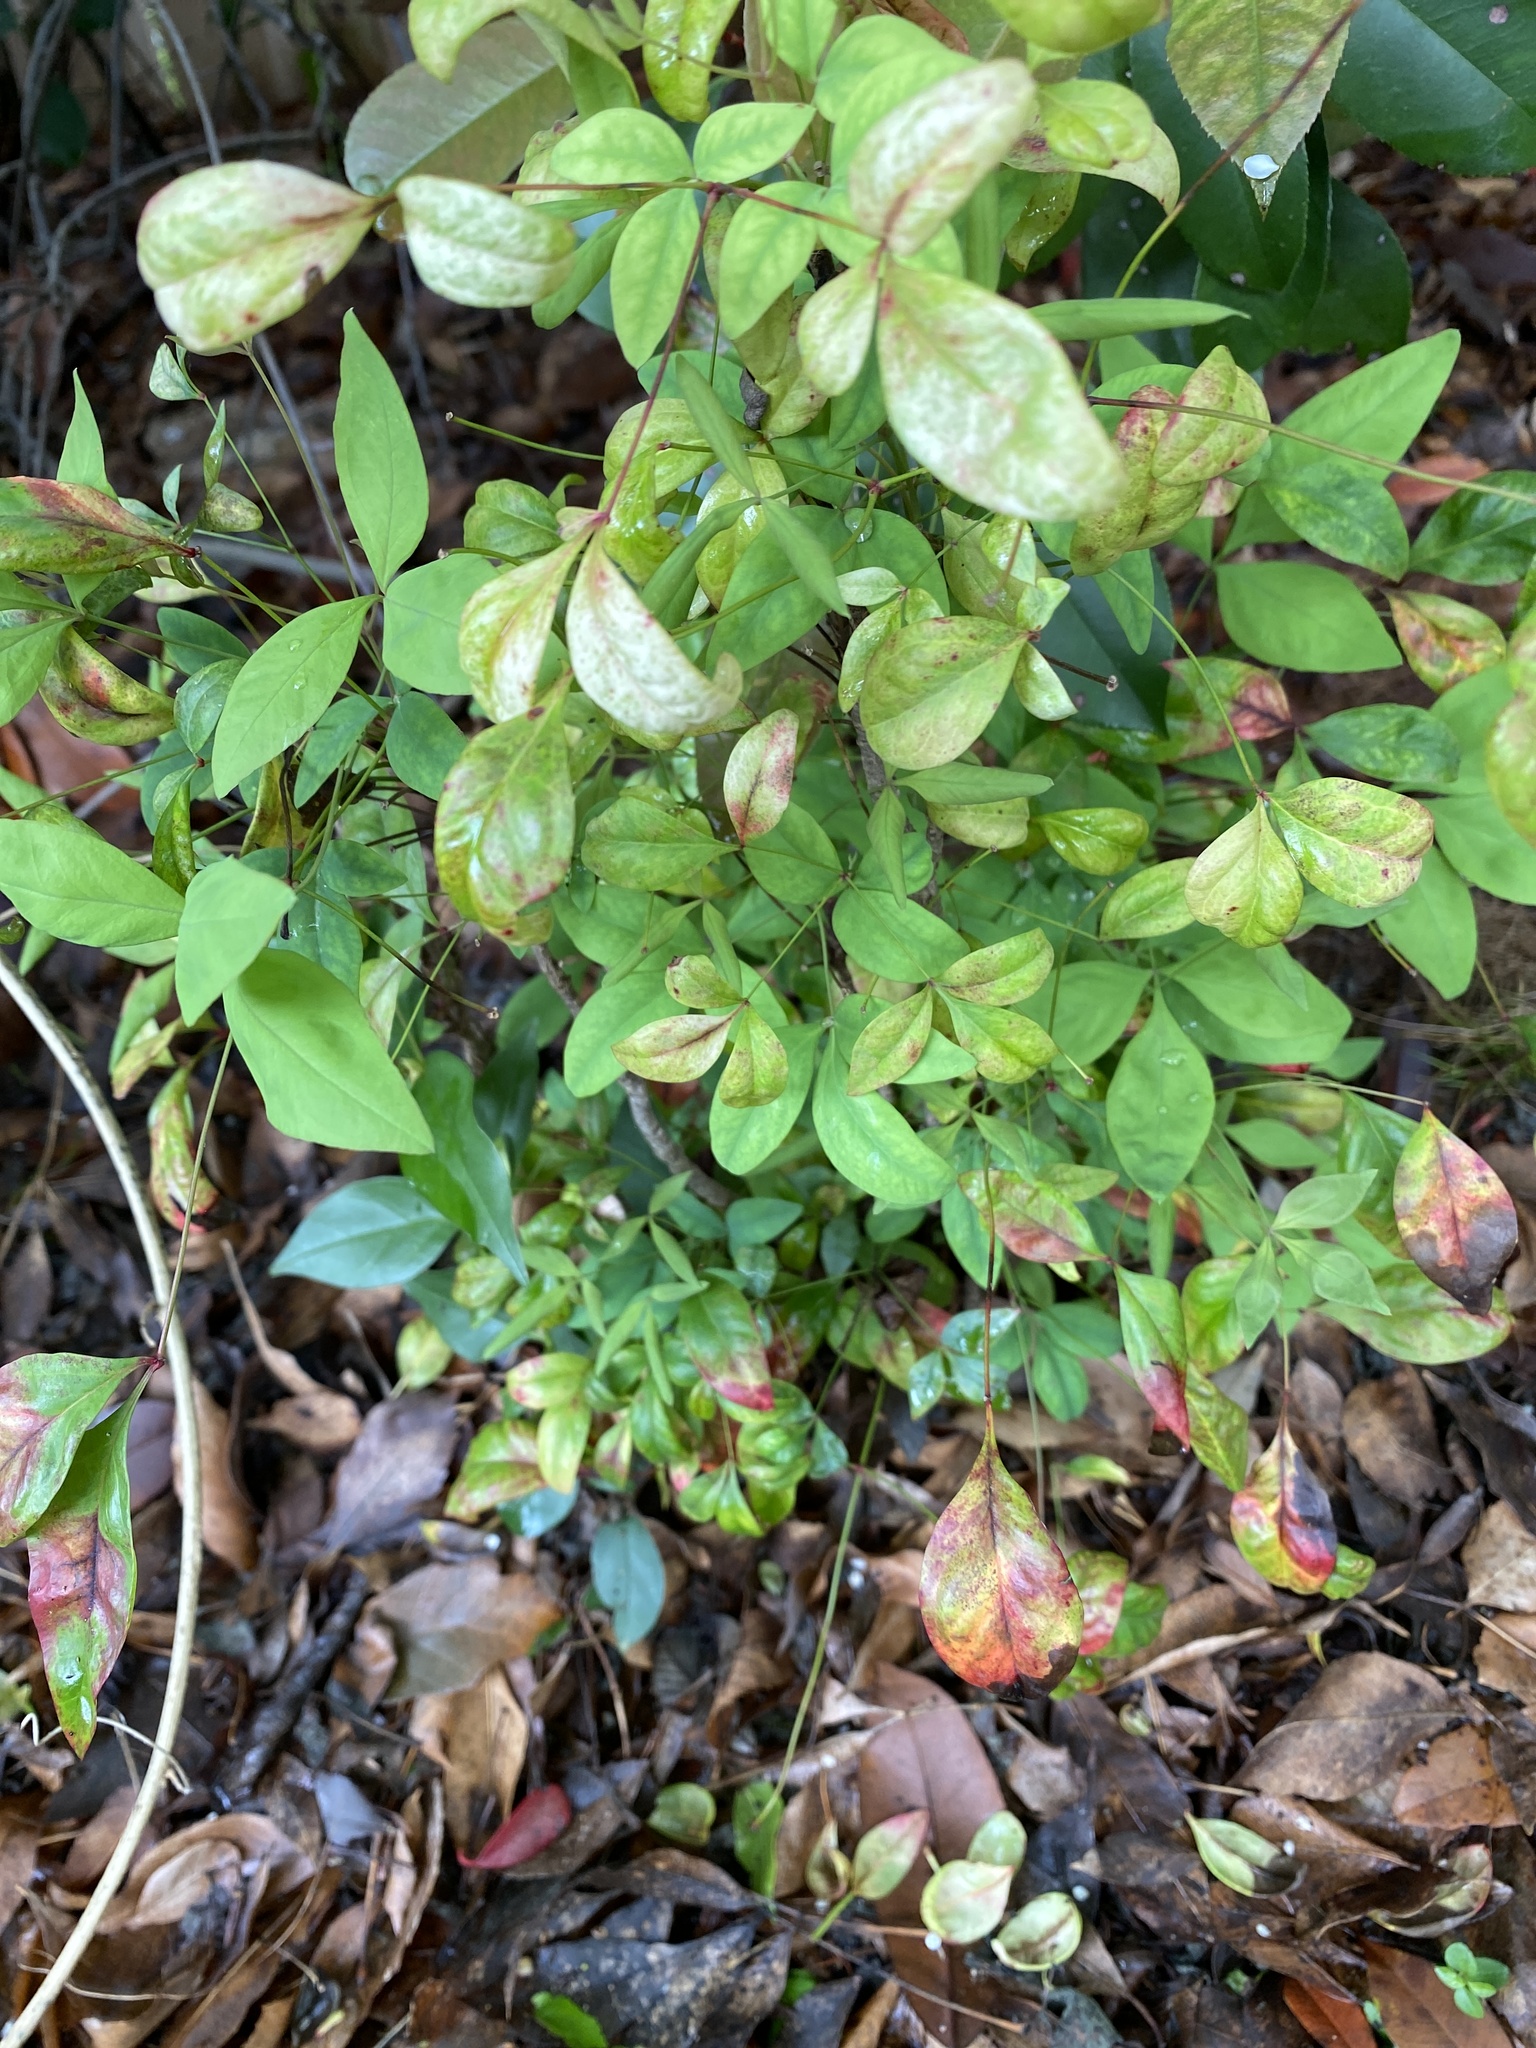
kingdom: Plantae
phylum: Tracheophyta
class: Magnoliopsida
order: Ranunculales
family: Berberidaceae
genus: Nandina
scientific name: Nandina domestica
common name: Sacred bamboo
